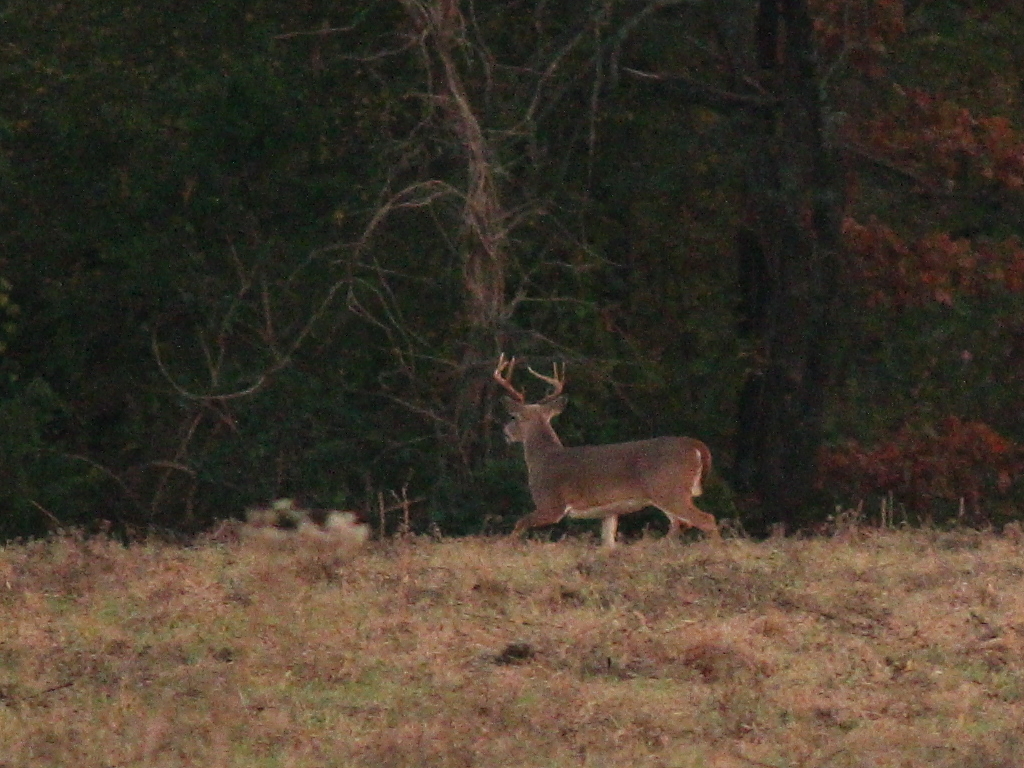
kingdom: Animalia
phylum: Chordata
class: Mammalia
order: Artiodactyla
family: Cervidae
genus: Odocoileus
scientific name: Odocoileus virginianus
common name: White-tailed deer
